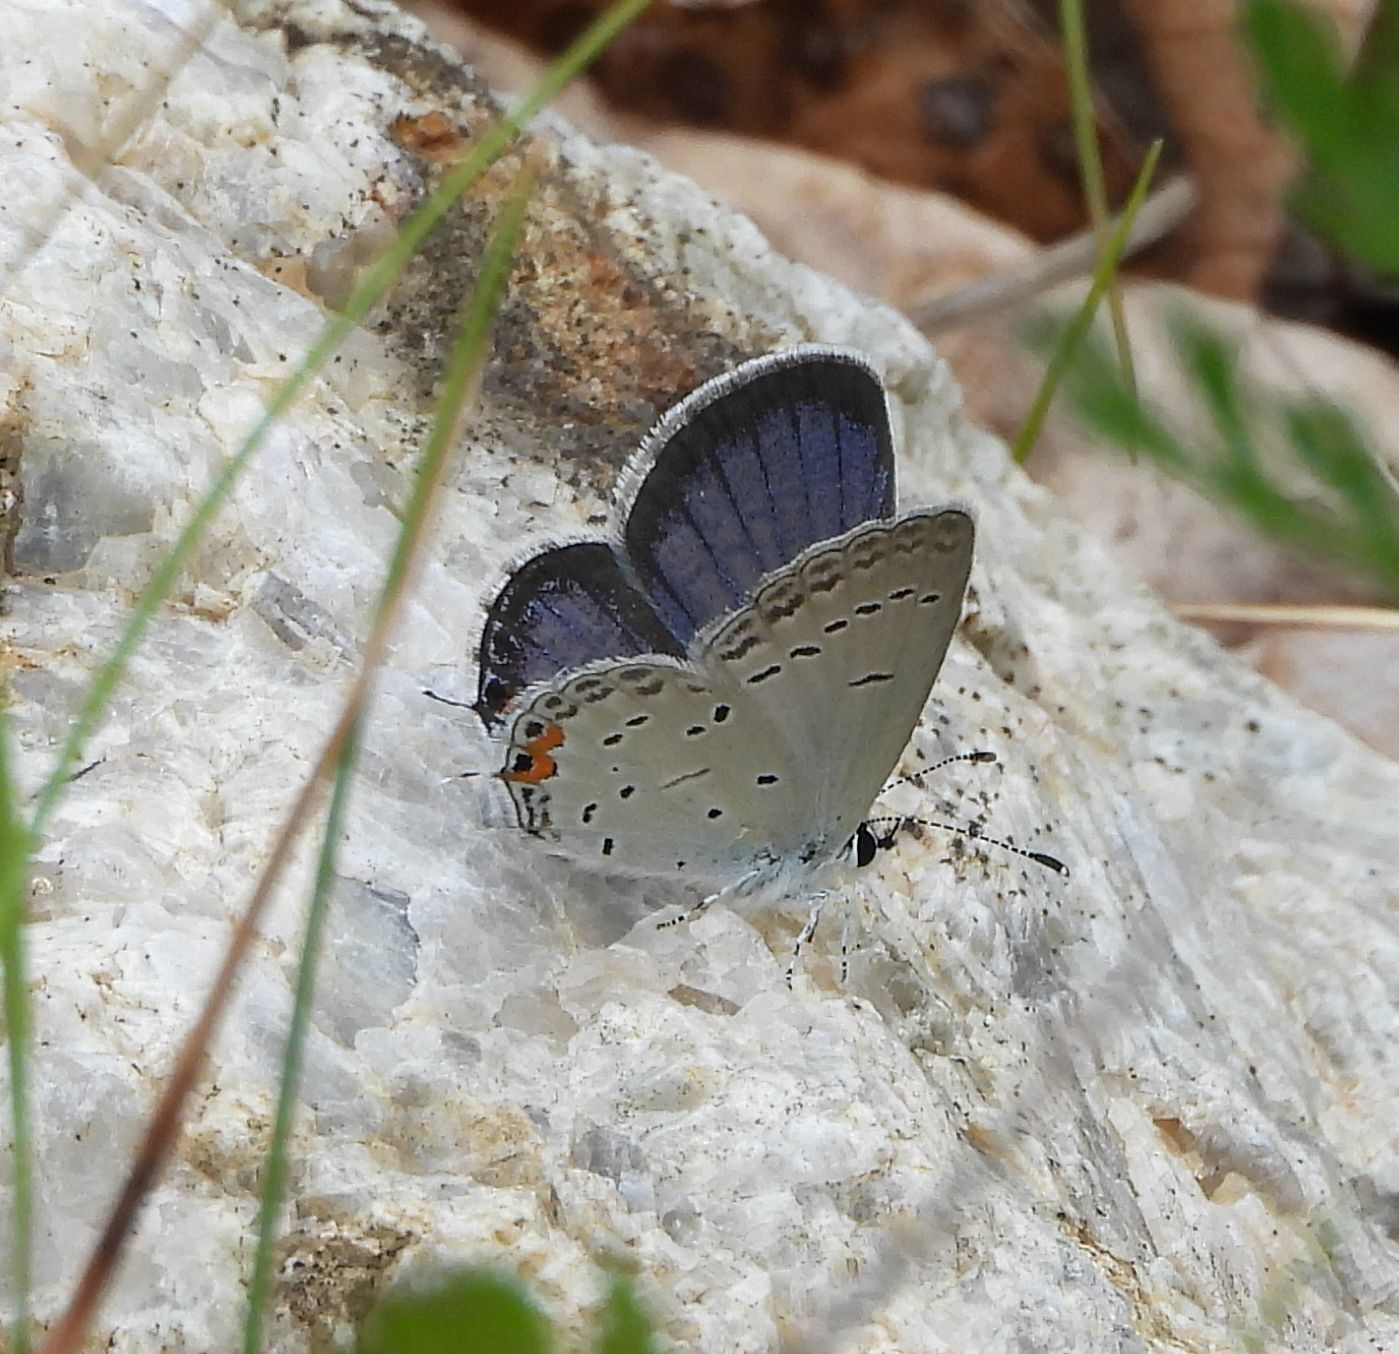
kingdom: Animalia
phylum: Arthropoda
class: Insecta
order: Lepidoptera
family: Lycaenidae
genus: Elkalyce
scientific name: Elkalyce comyntas
